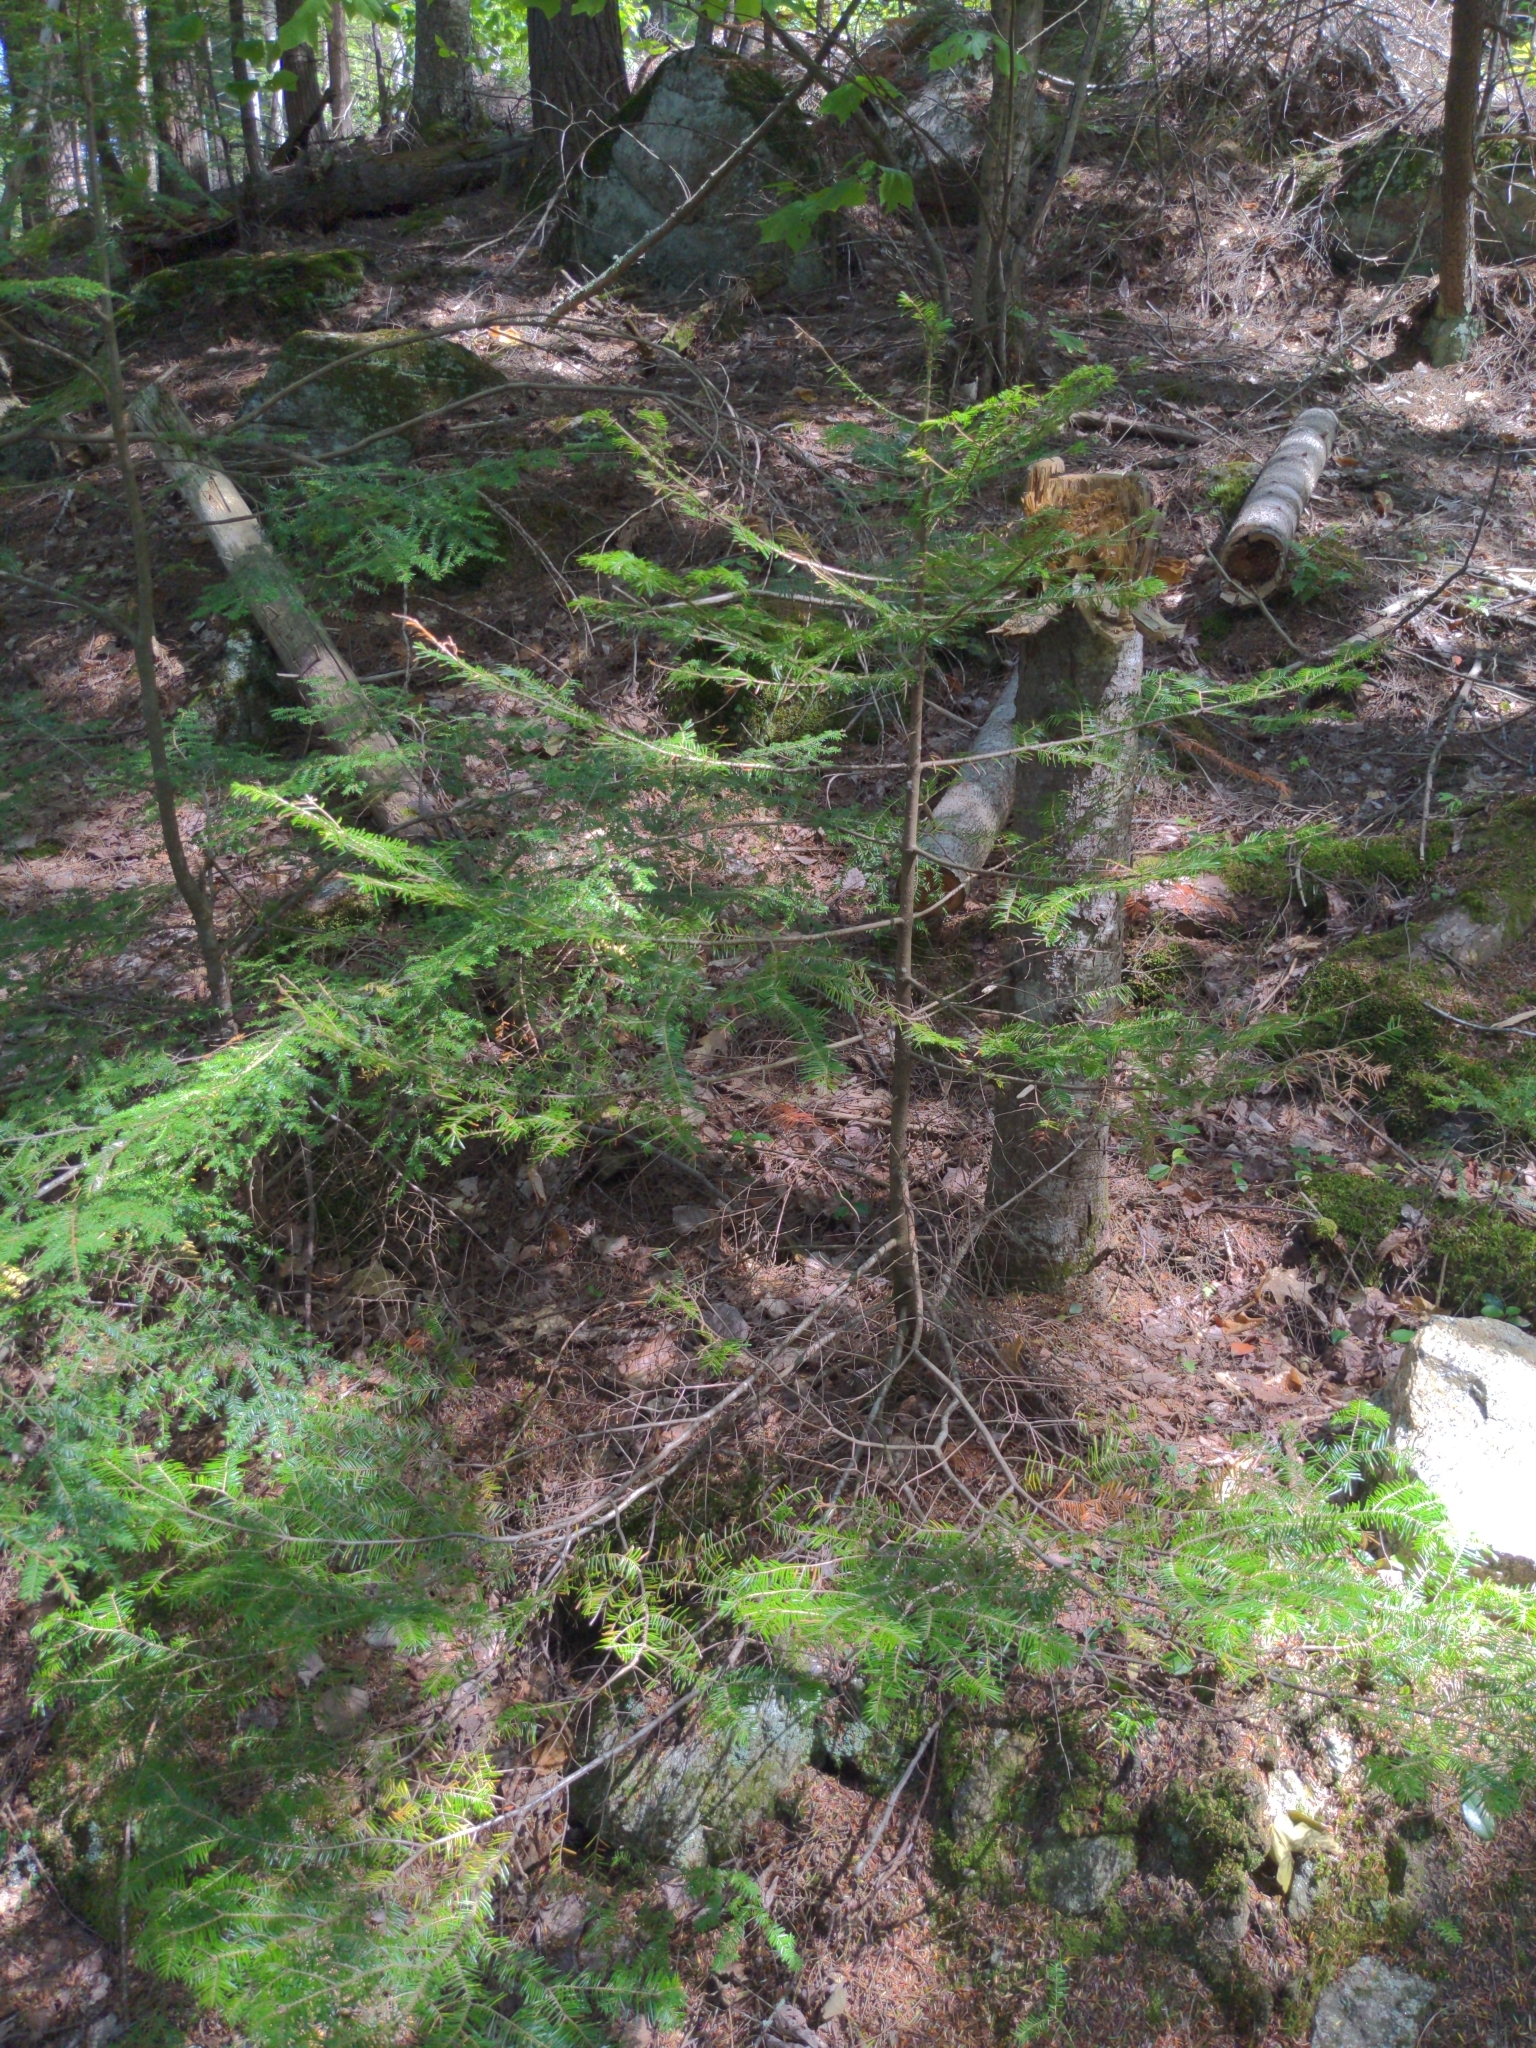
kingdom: Plantae
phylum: Tracheophyta
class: Pinopsida
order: Pinales
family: Pinaceae
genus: Abies
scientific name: Abies balsamea
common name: Balsam fir
